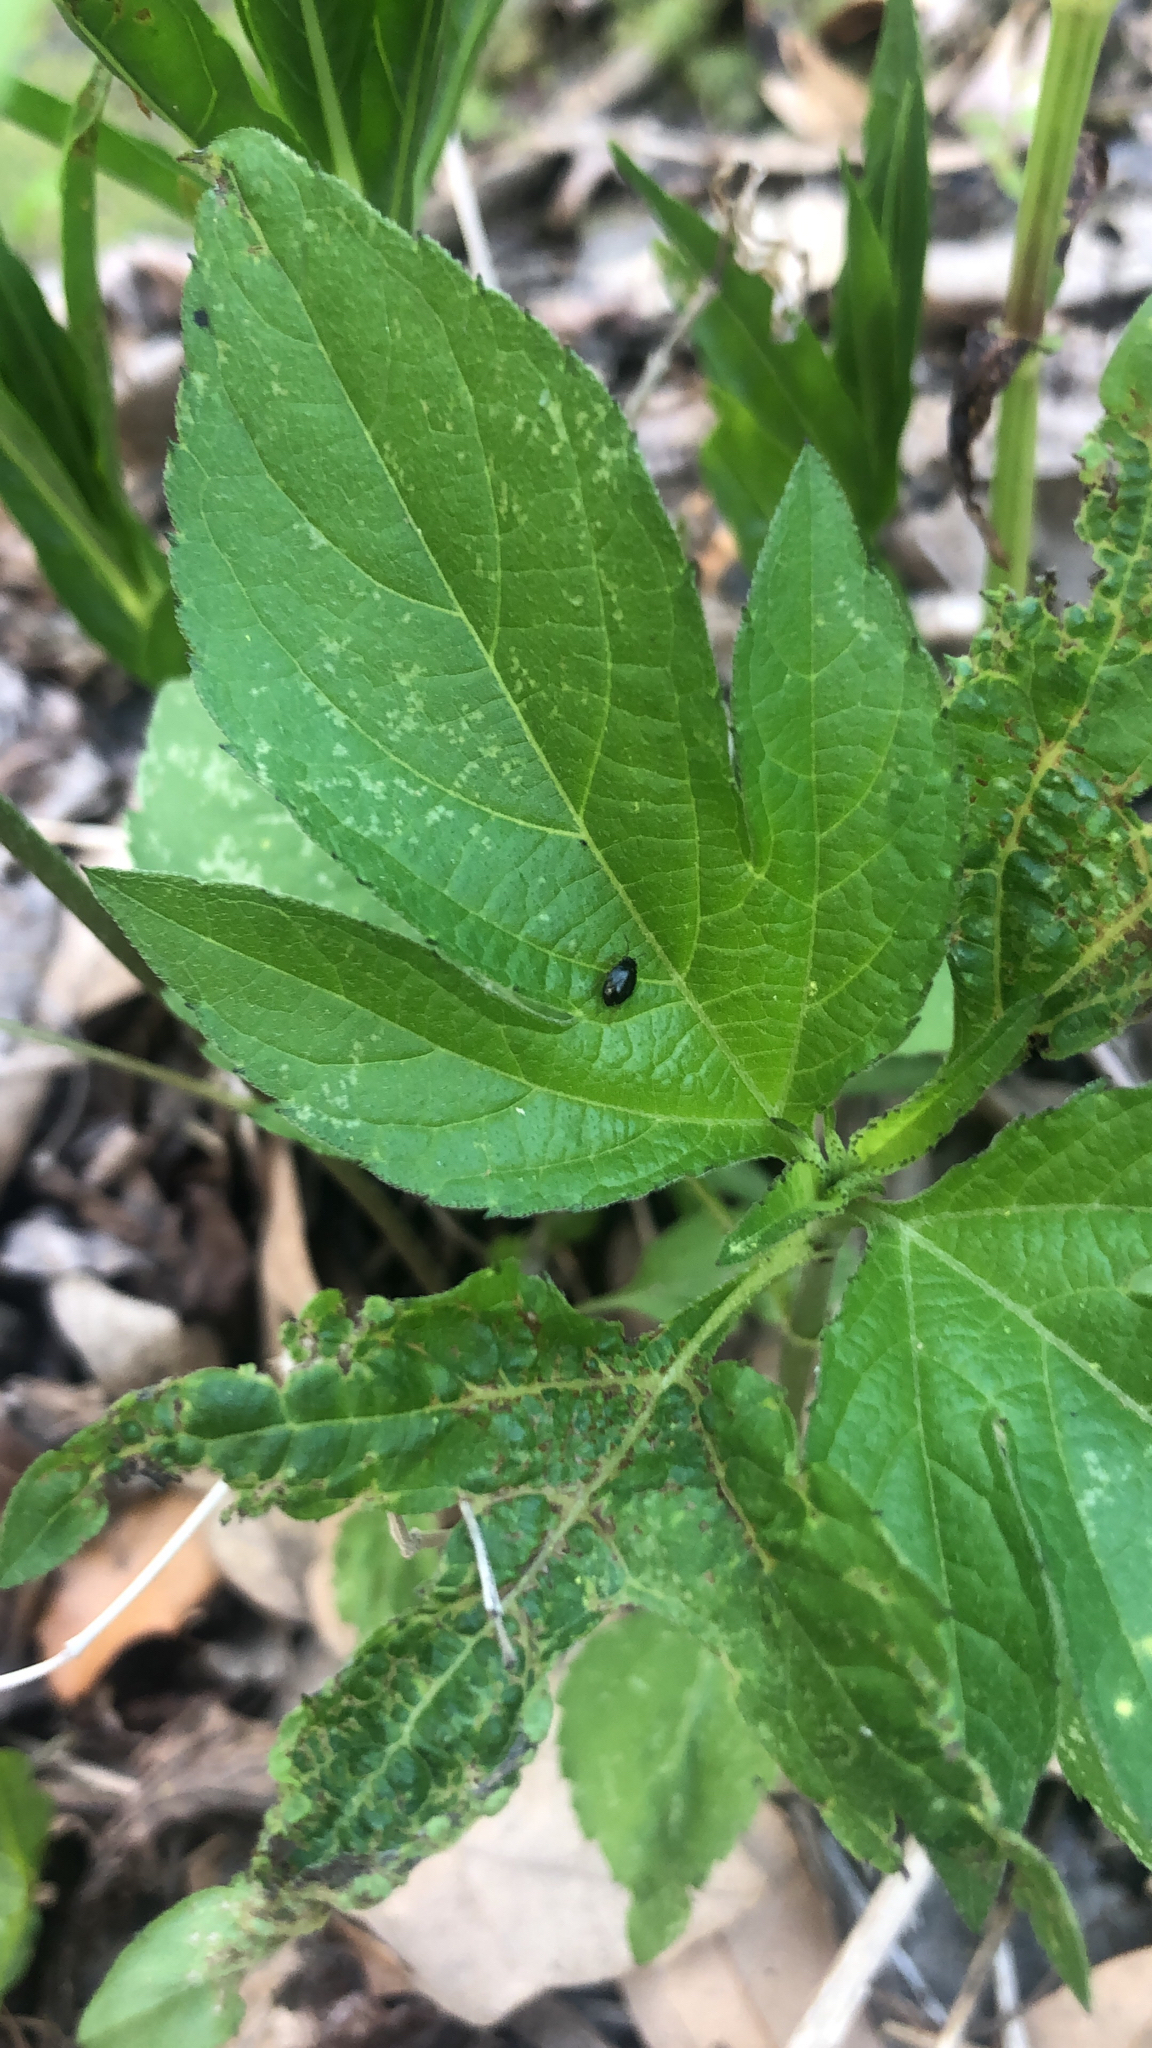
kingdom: Plantae
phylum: Tracheophyta
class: Magnoliopsida
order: Asterales
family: Asteraceae
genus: Ambrosia
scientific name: Ambrosia trifida
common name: Giant ragweed
